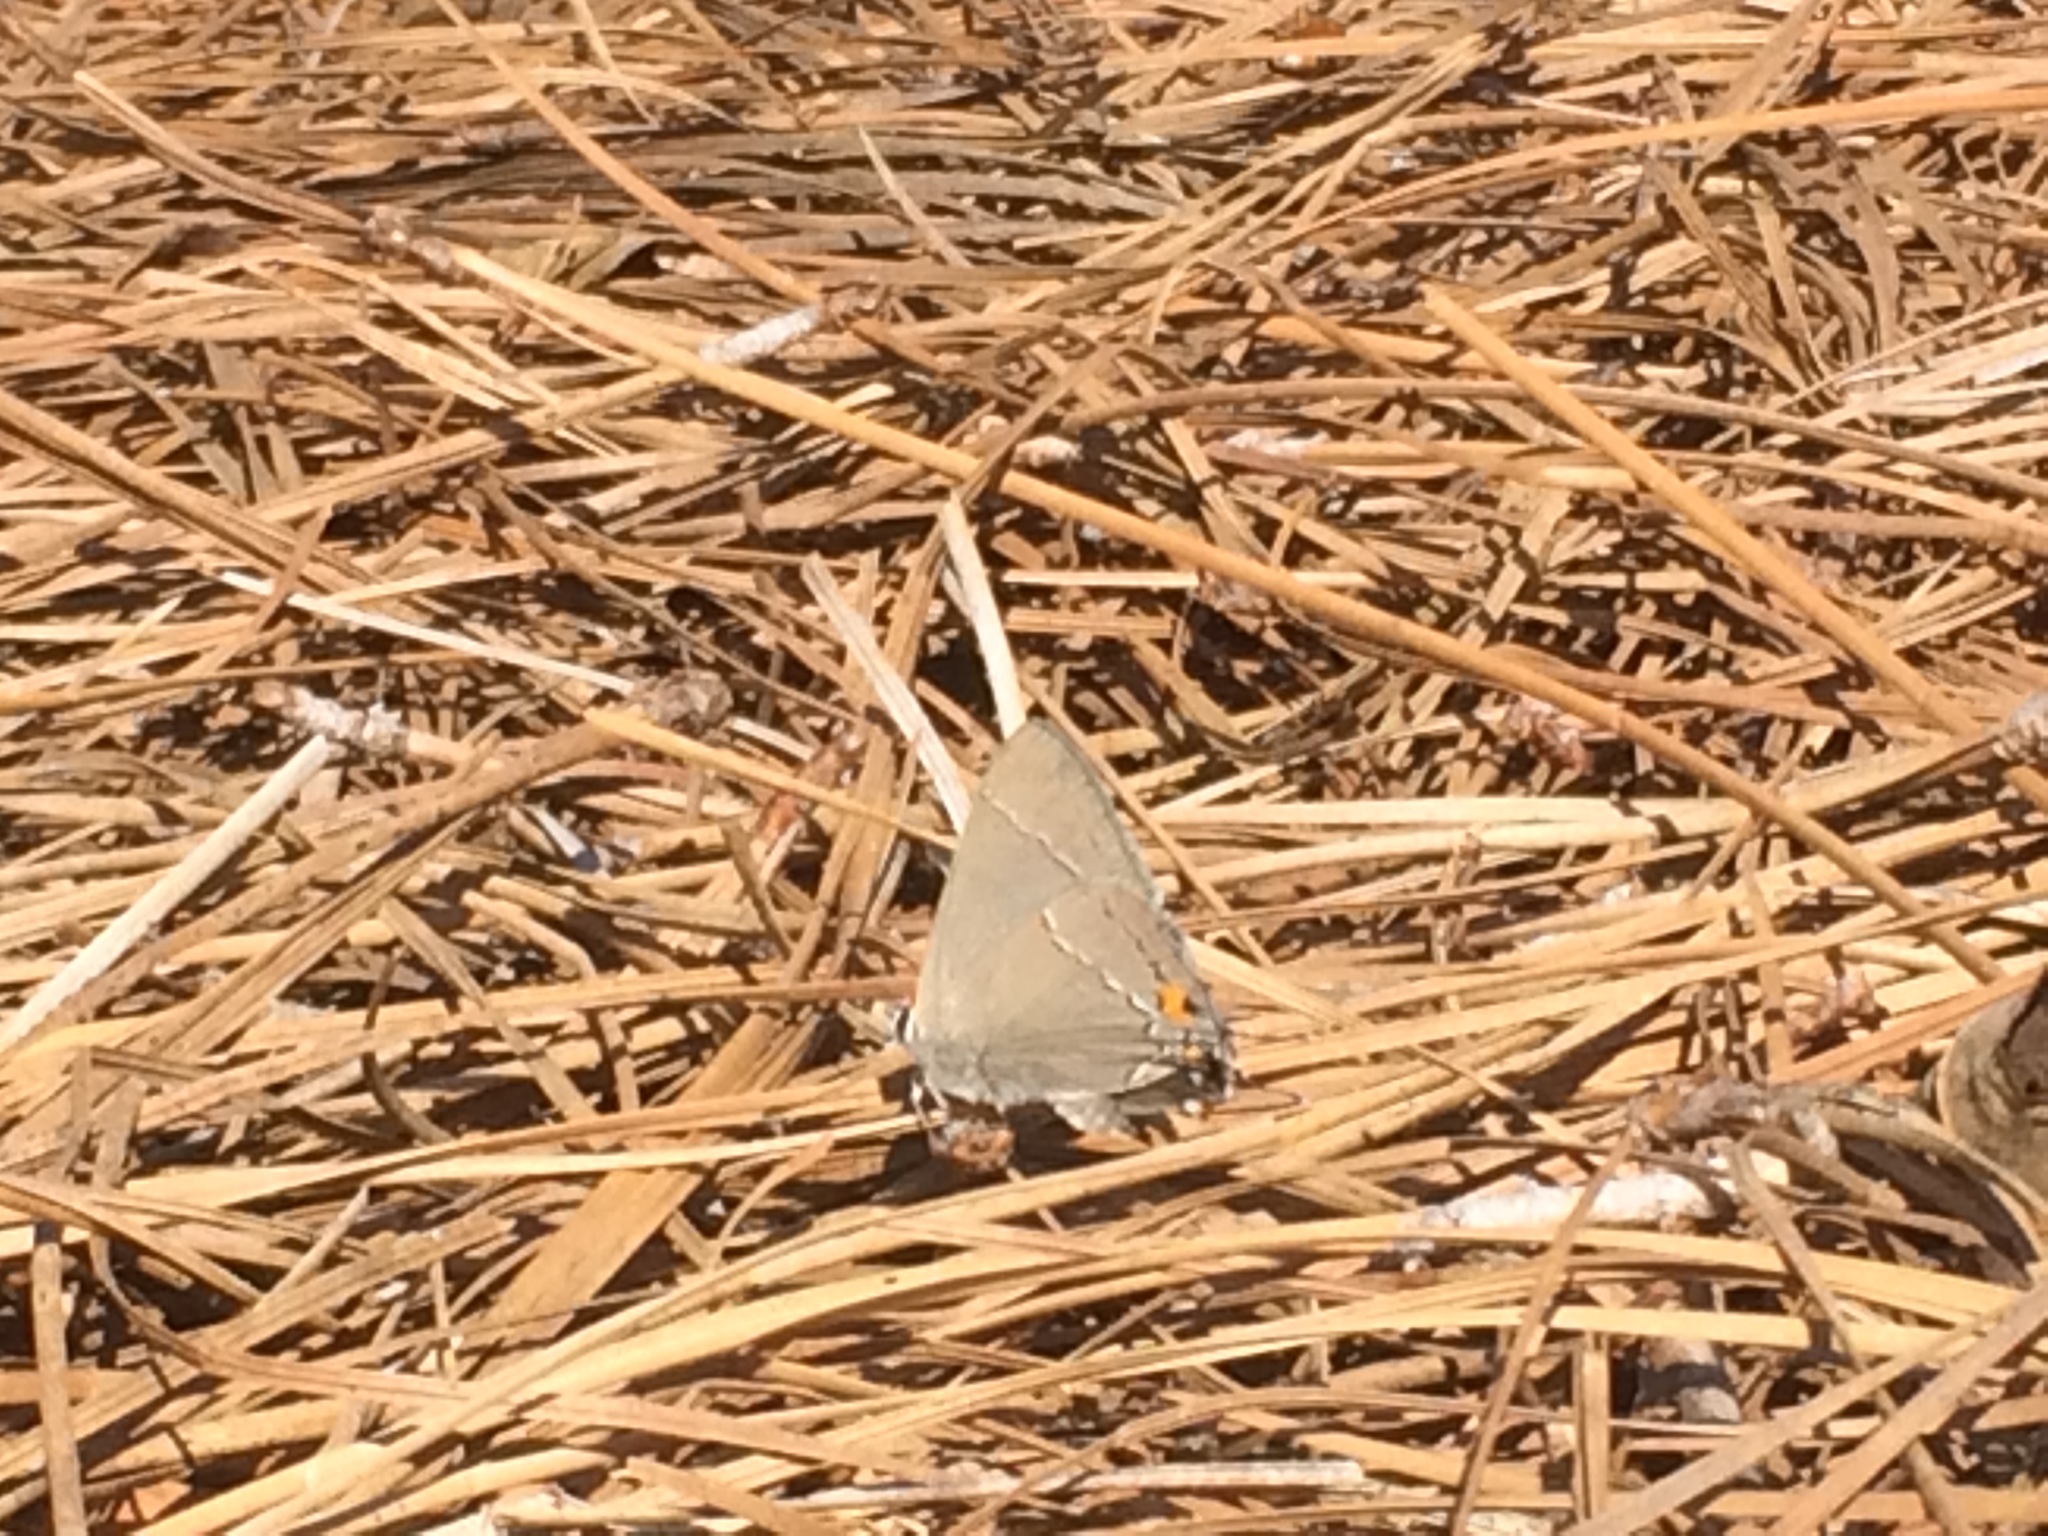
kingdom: Animalia
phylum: Arthropoda
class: Insecta
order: Lepidoptera
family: Lycaenidae
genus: Strymon
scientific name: Strymon melinus
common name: Gray hairstreak
